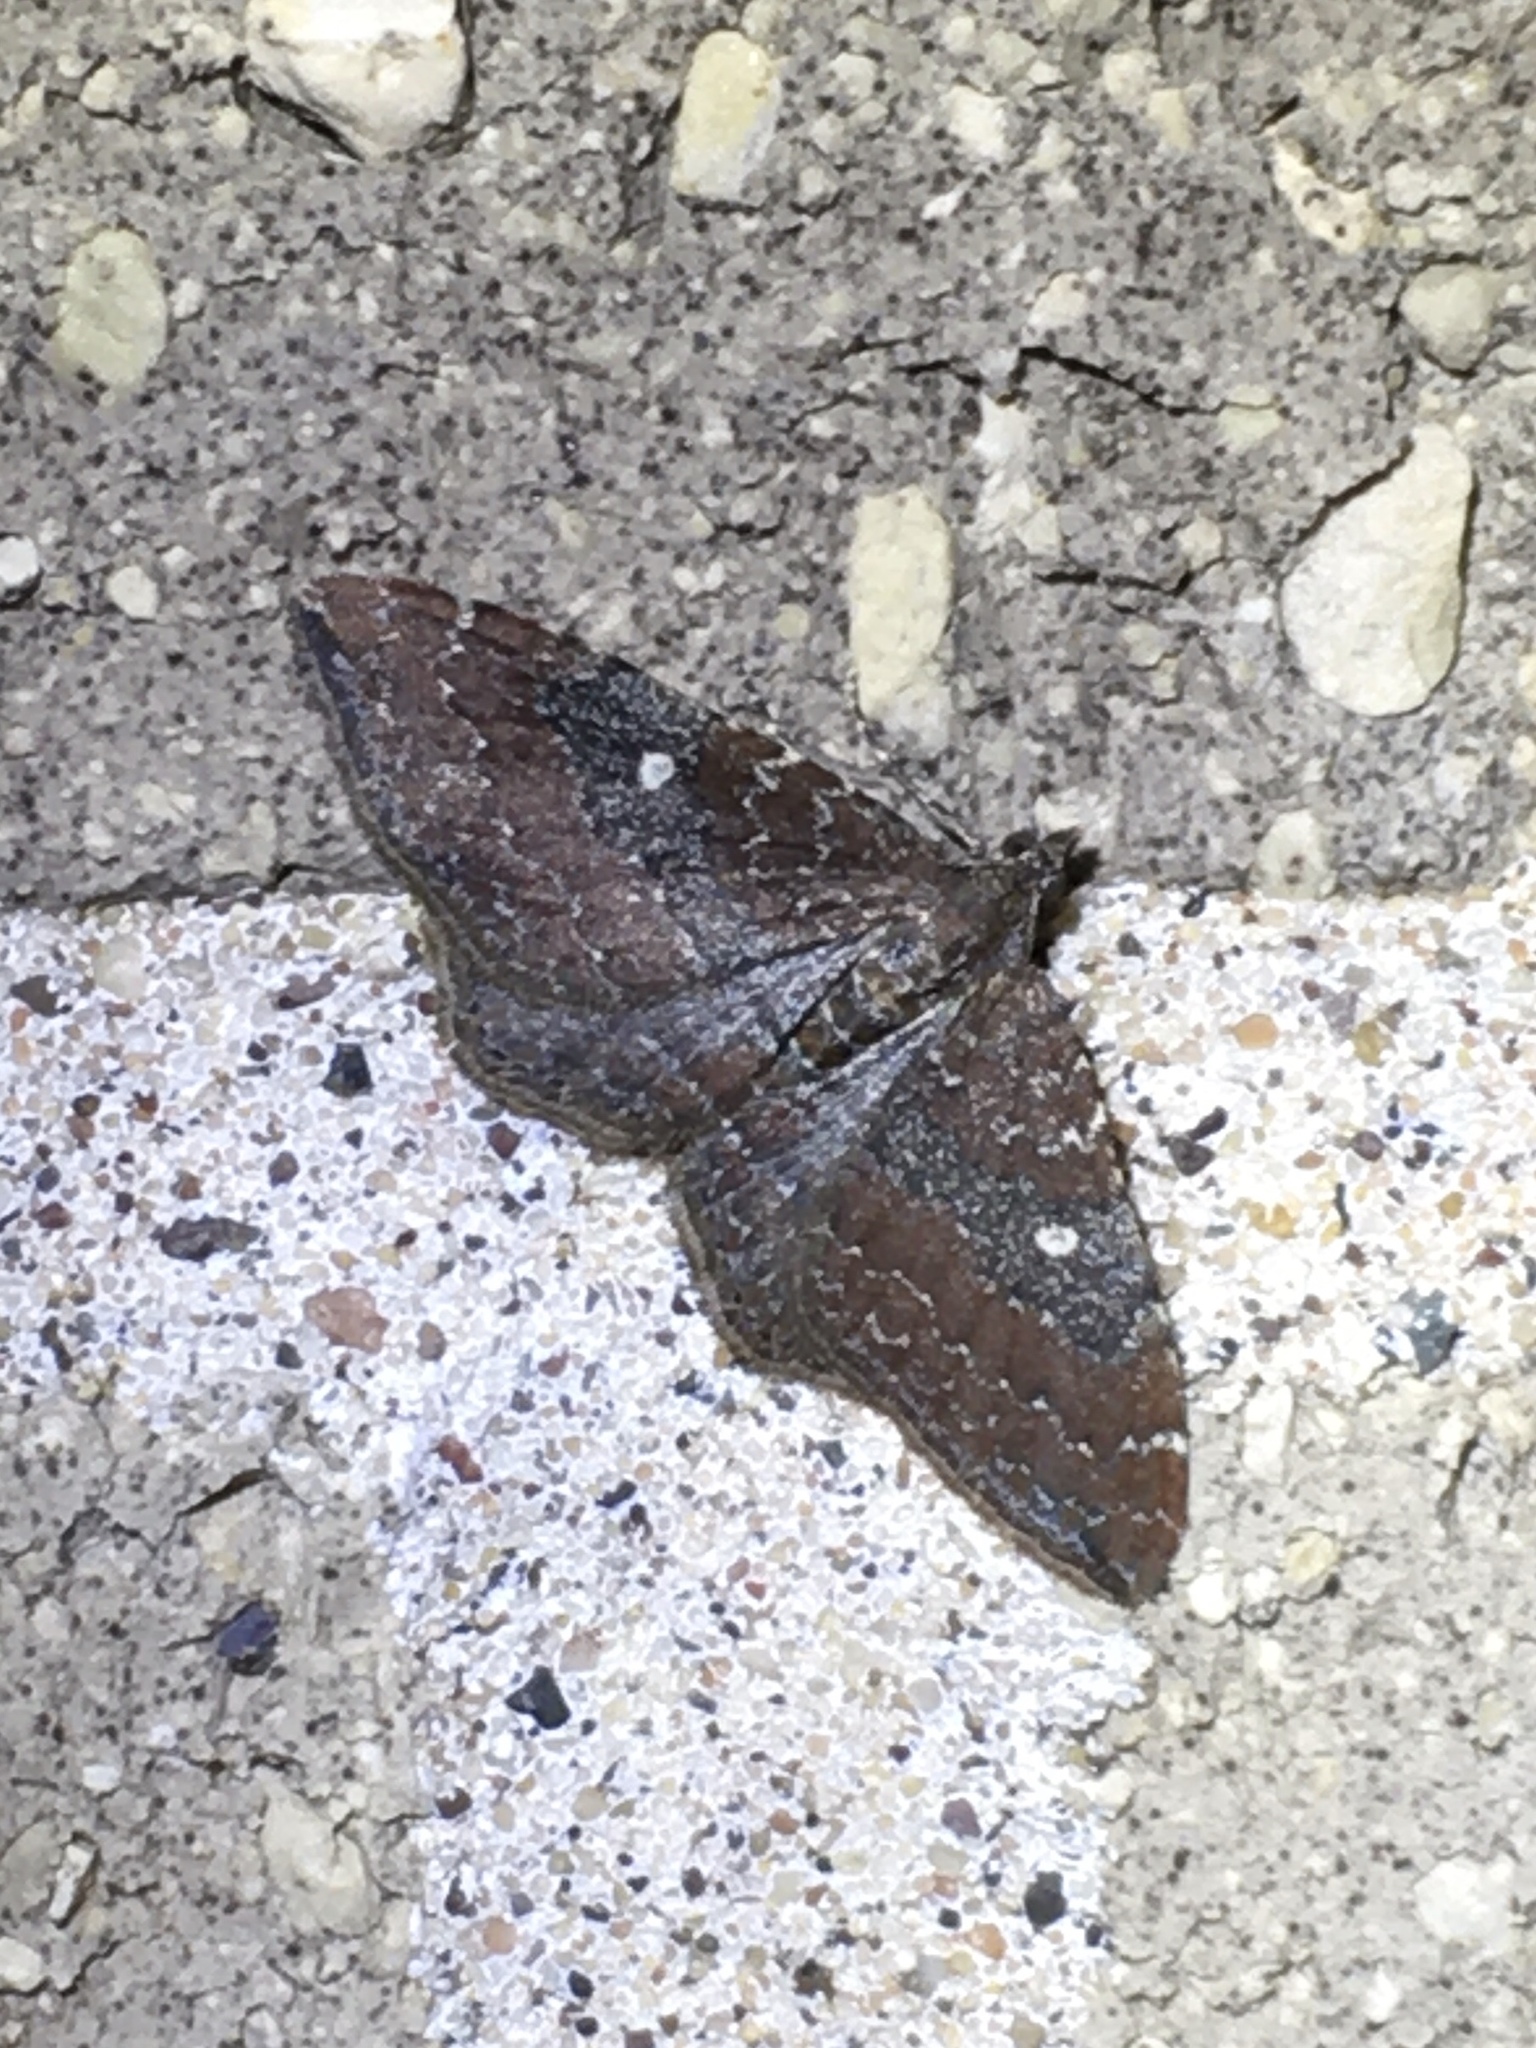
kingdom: Animalia
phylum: Arthropoda
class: Insecta
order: Lepidoptera
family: Geometridae
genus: Orthonama
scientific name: Orthonama obstipata
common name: The gem
